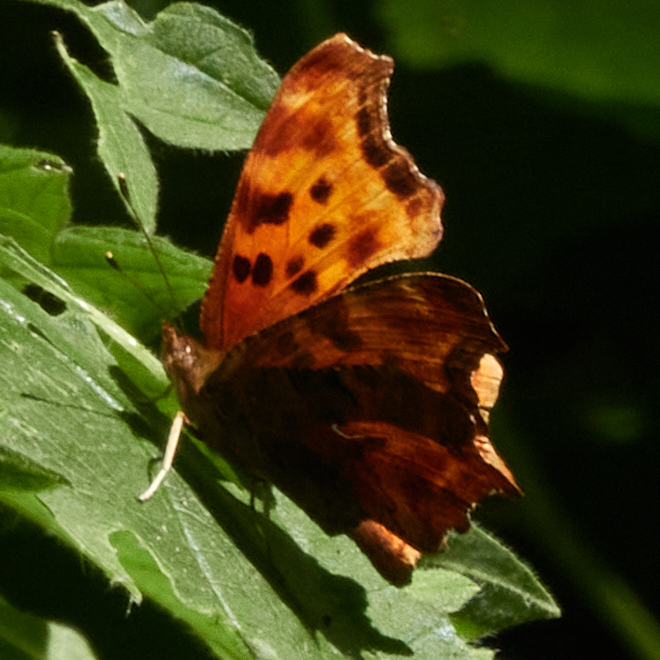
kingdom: Animalia
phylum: Arthropoda
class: Insecta
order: Lepidoptera
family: Nymphalidae
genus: Polygonia
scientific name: Polygonia satyrus
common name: Satyr angle wing
